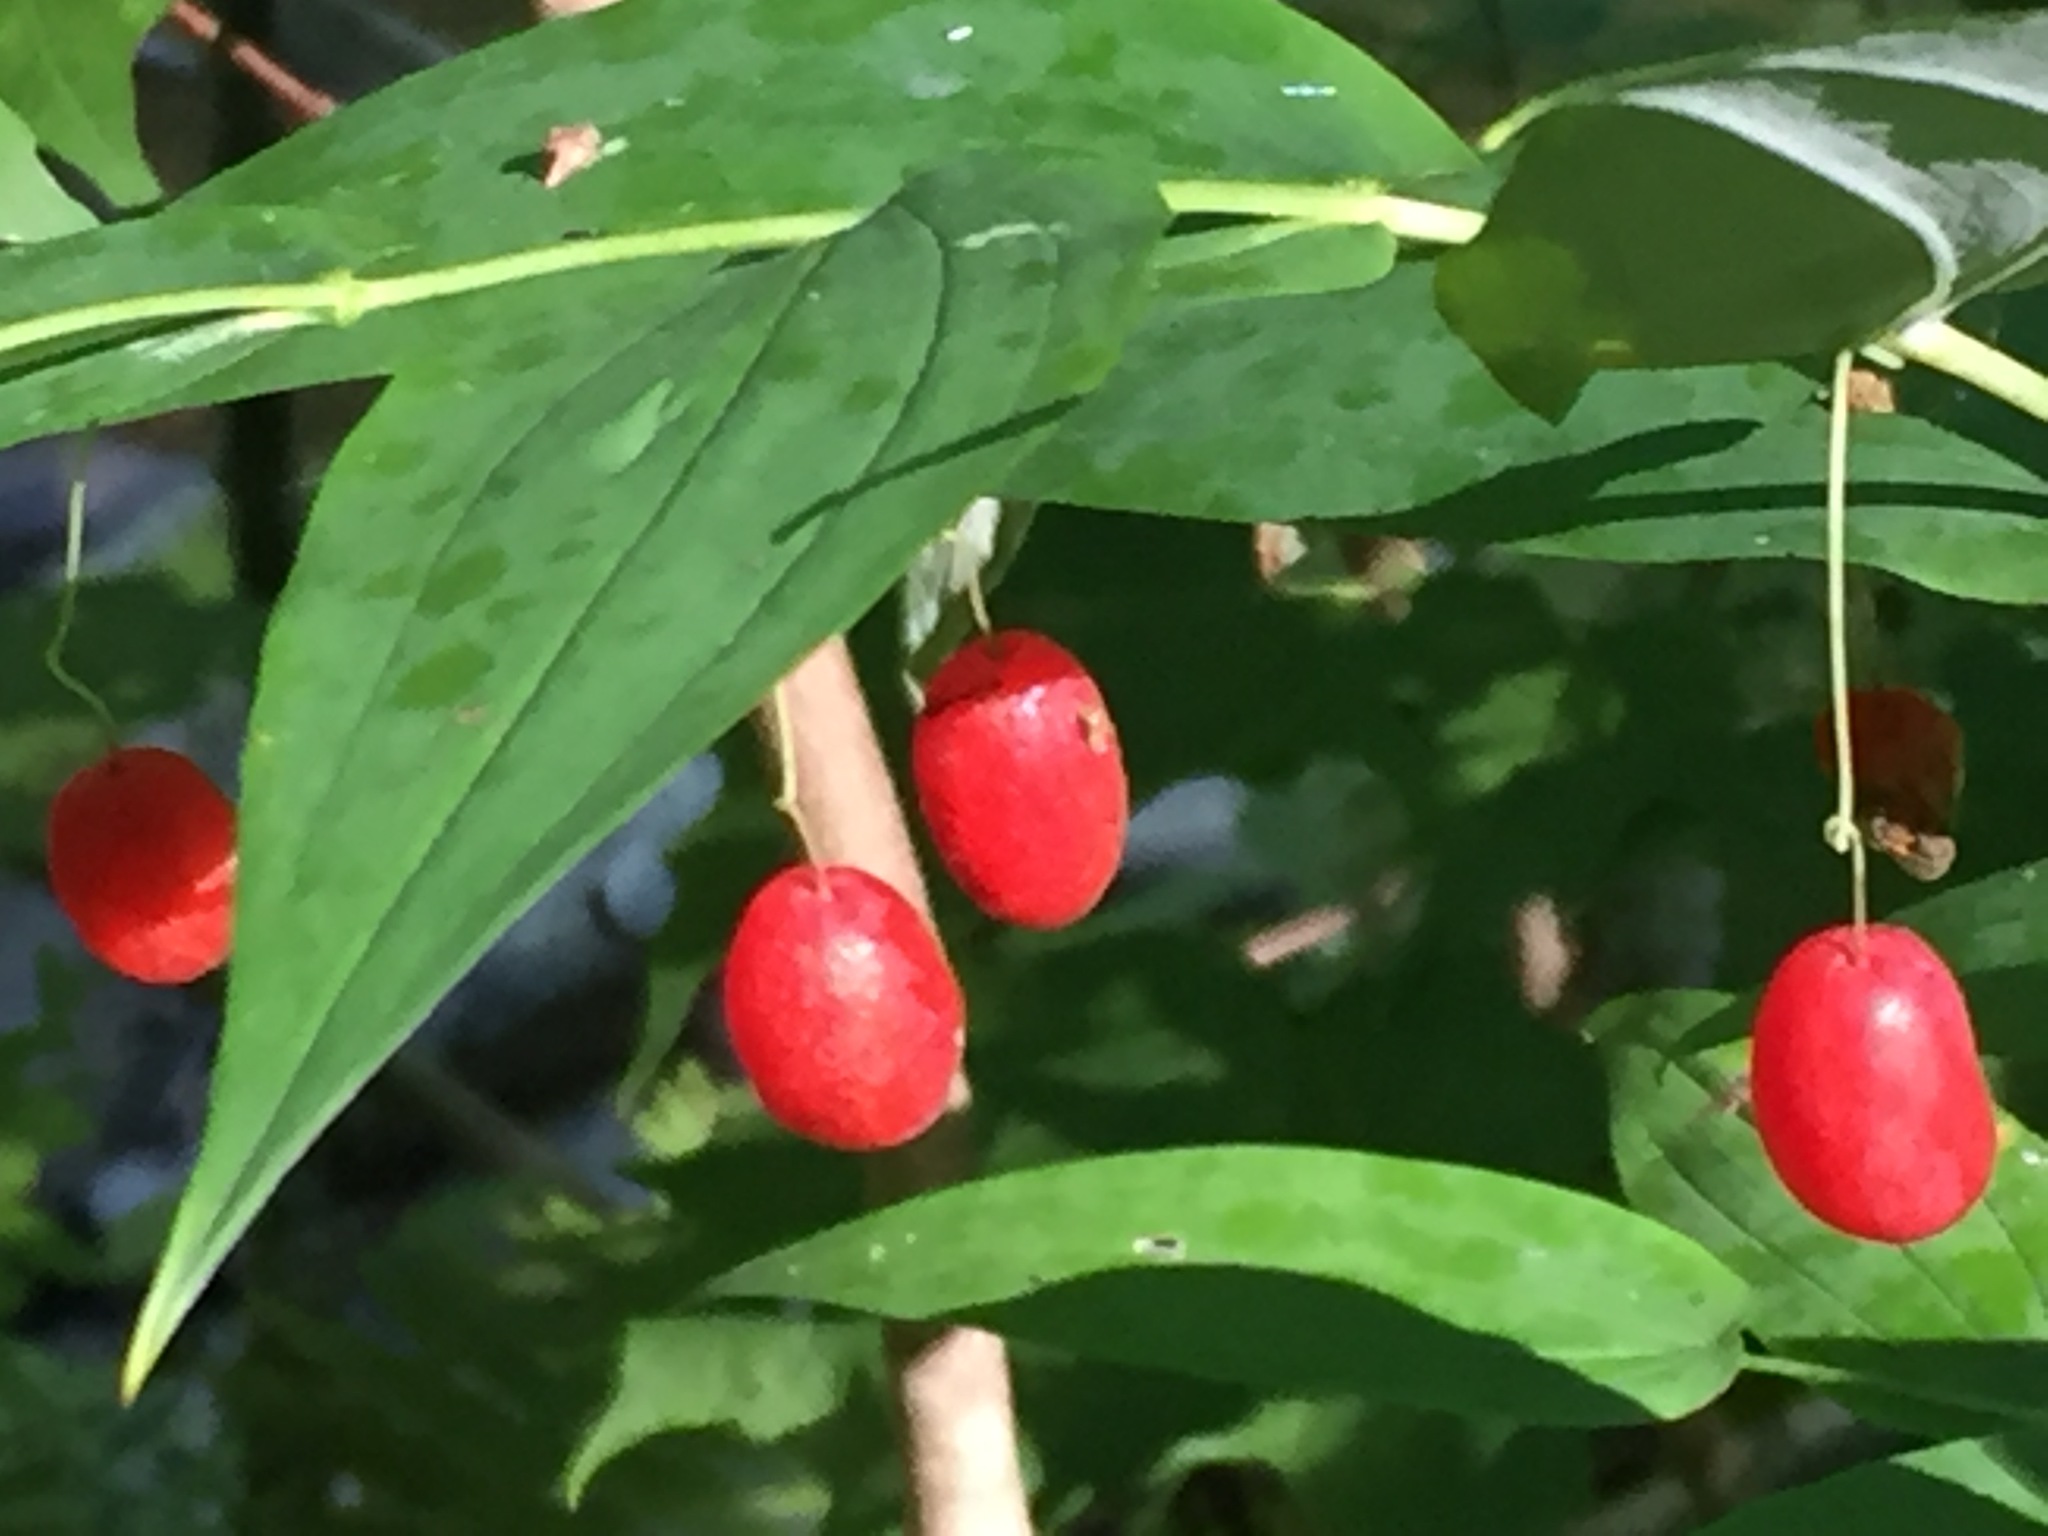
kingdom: Plantae
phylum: Tracheophyta
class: Liliopsida
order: Liliales
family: Liliaceae
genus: Streptopus
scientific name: Streptopus amplexifolius
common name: Clasp twisted stalk
